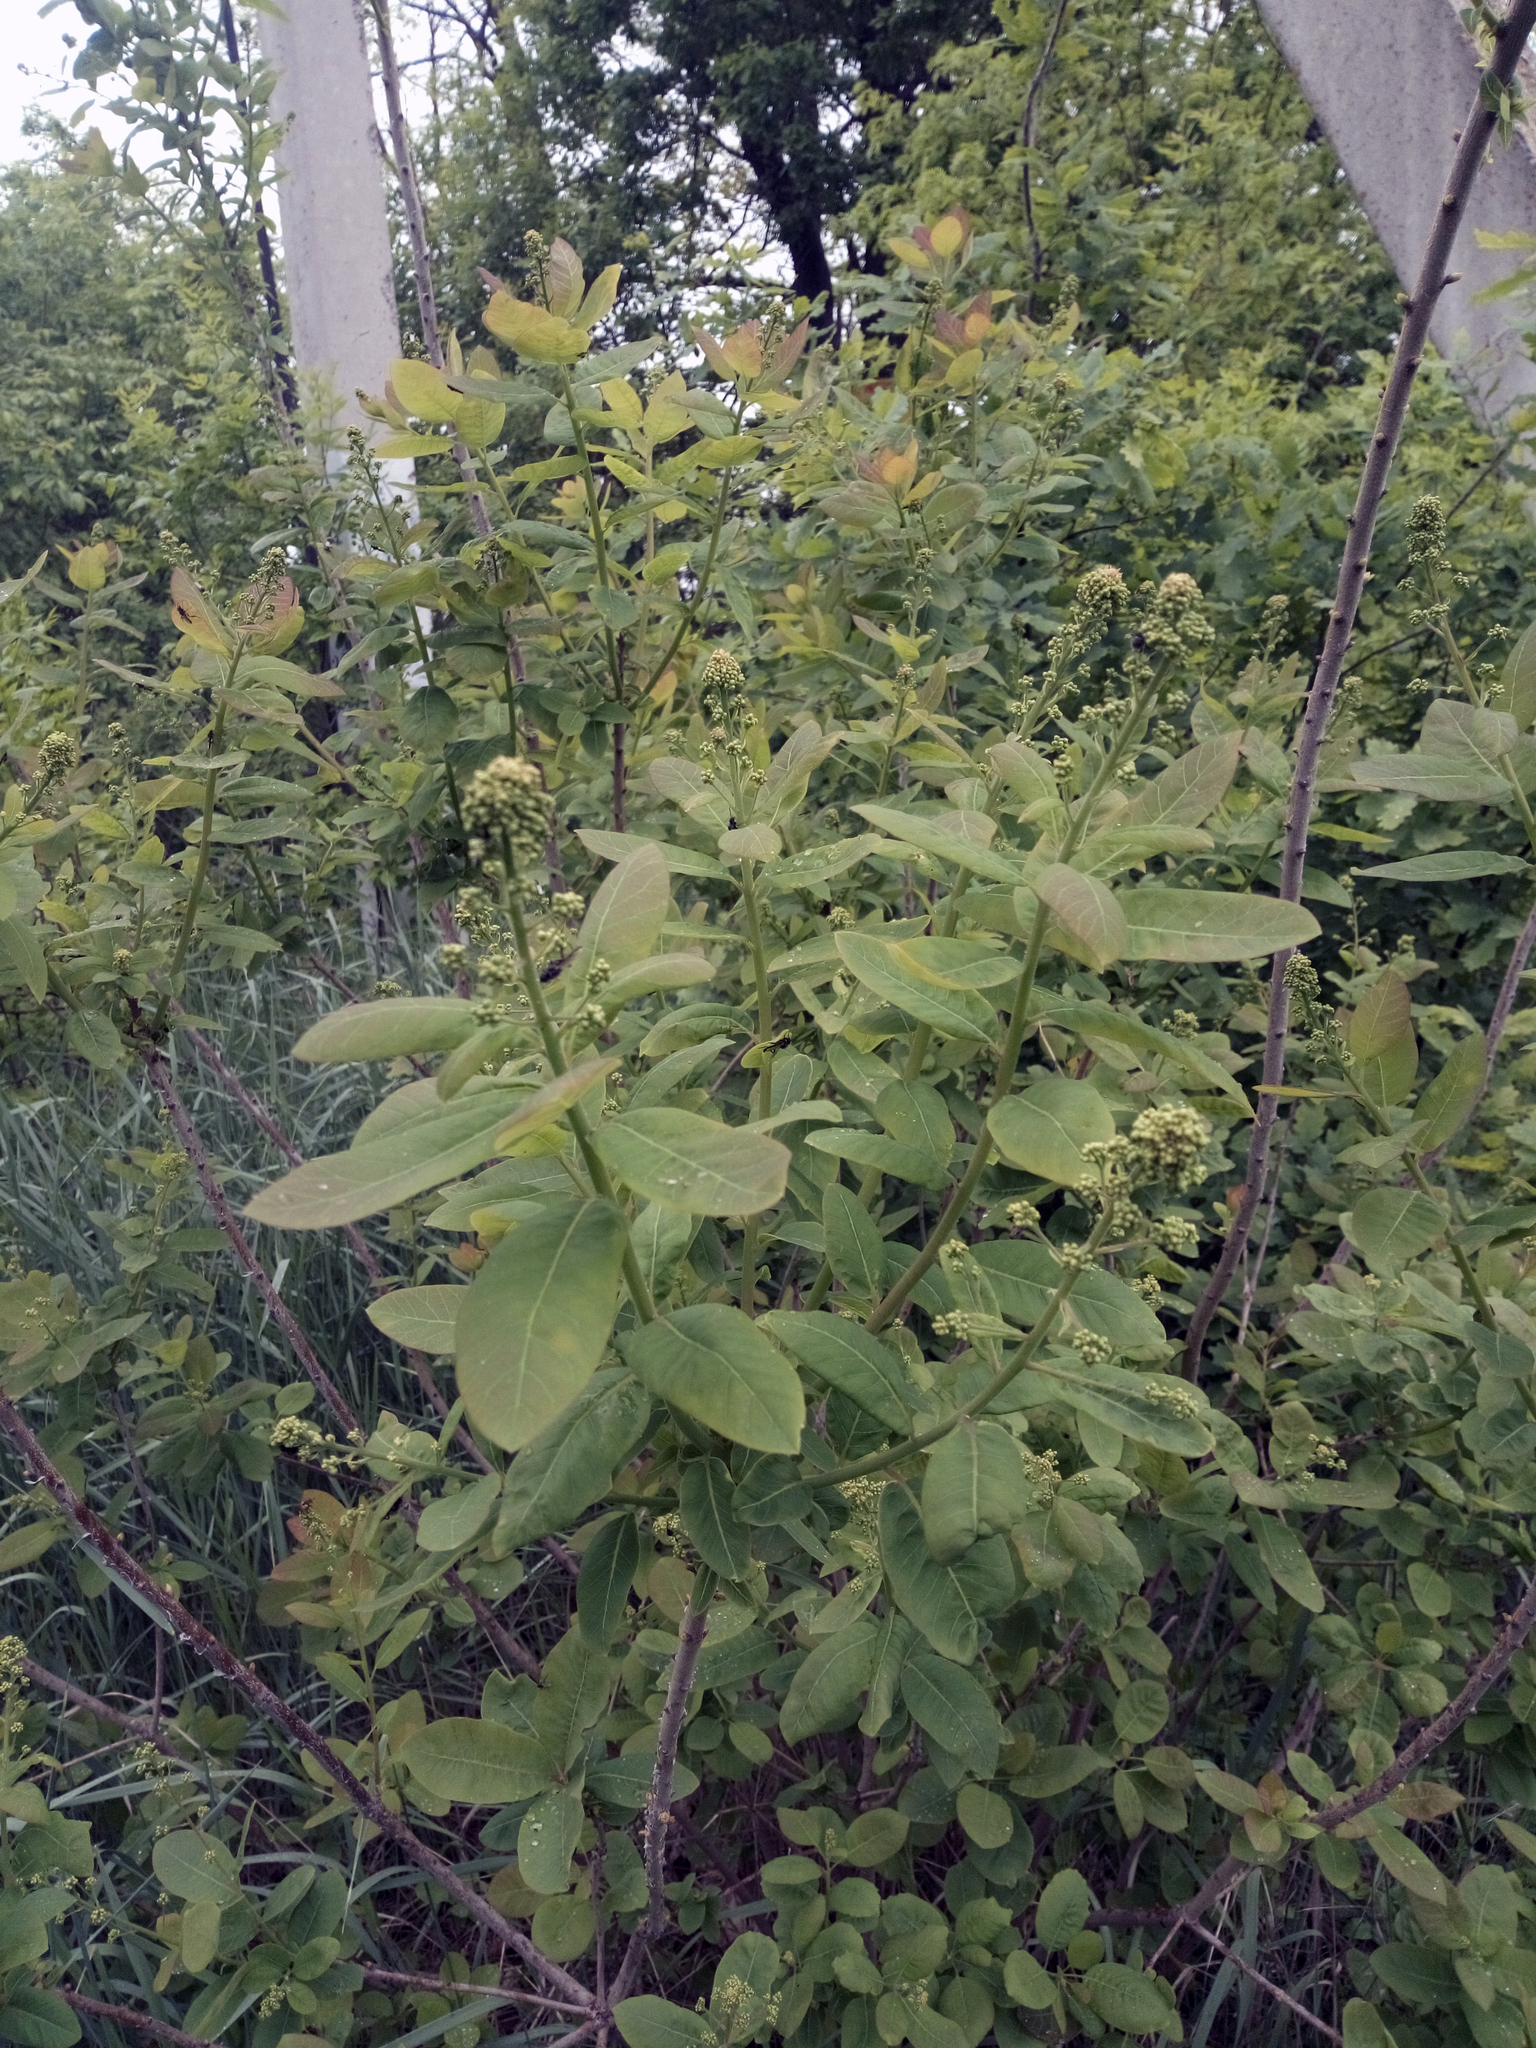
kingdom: Plantae
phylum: Tracheophyta
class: Magnoliopsida
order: Sapindales
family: Anacardiaceae
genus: Cotinus
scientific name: Cotinus coggygria
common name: Smoke-tree
